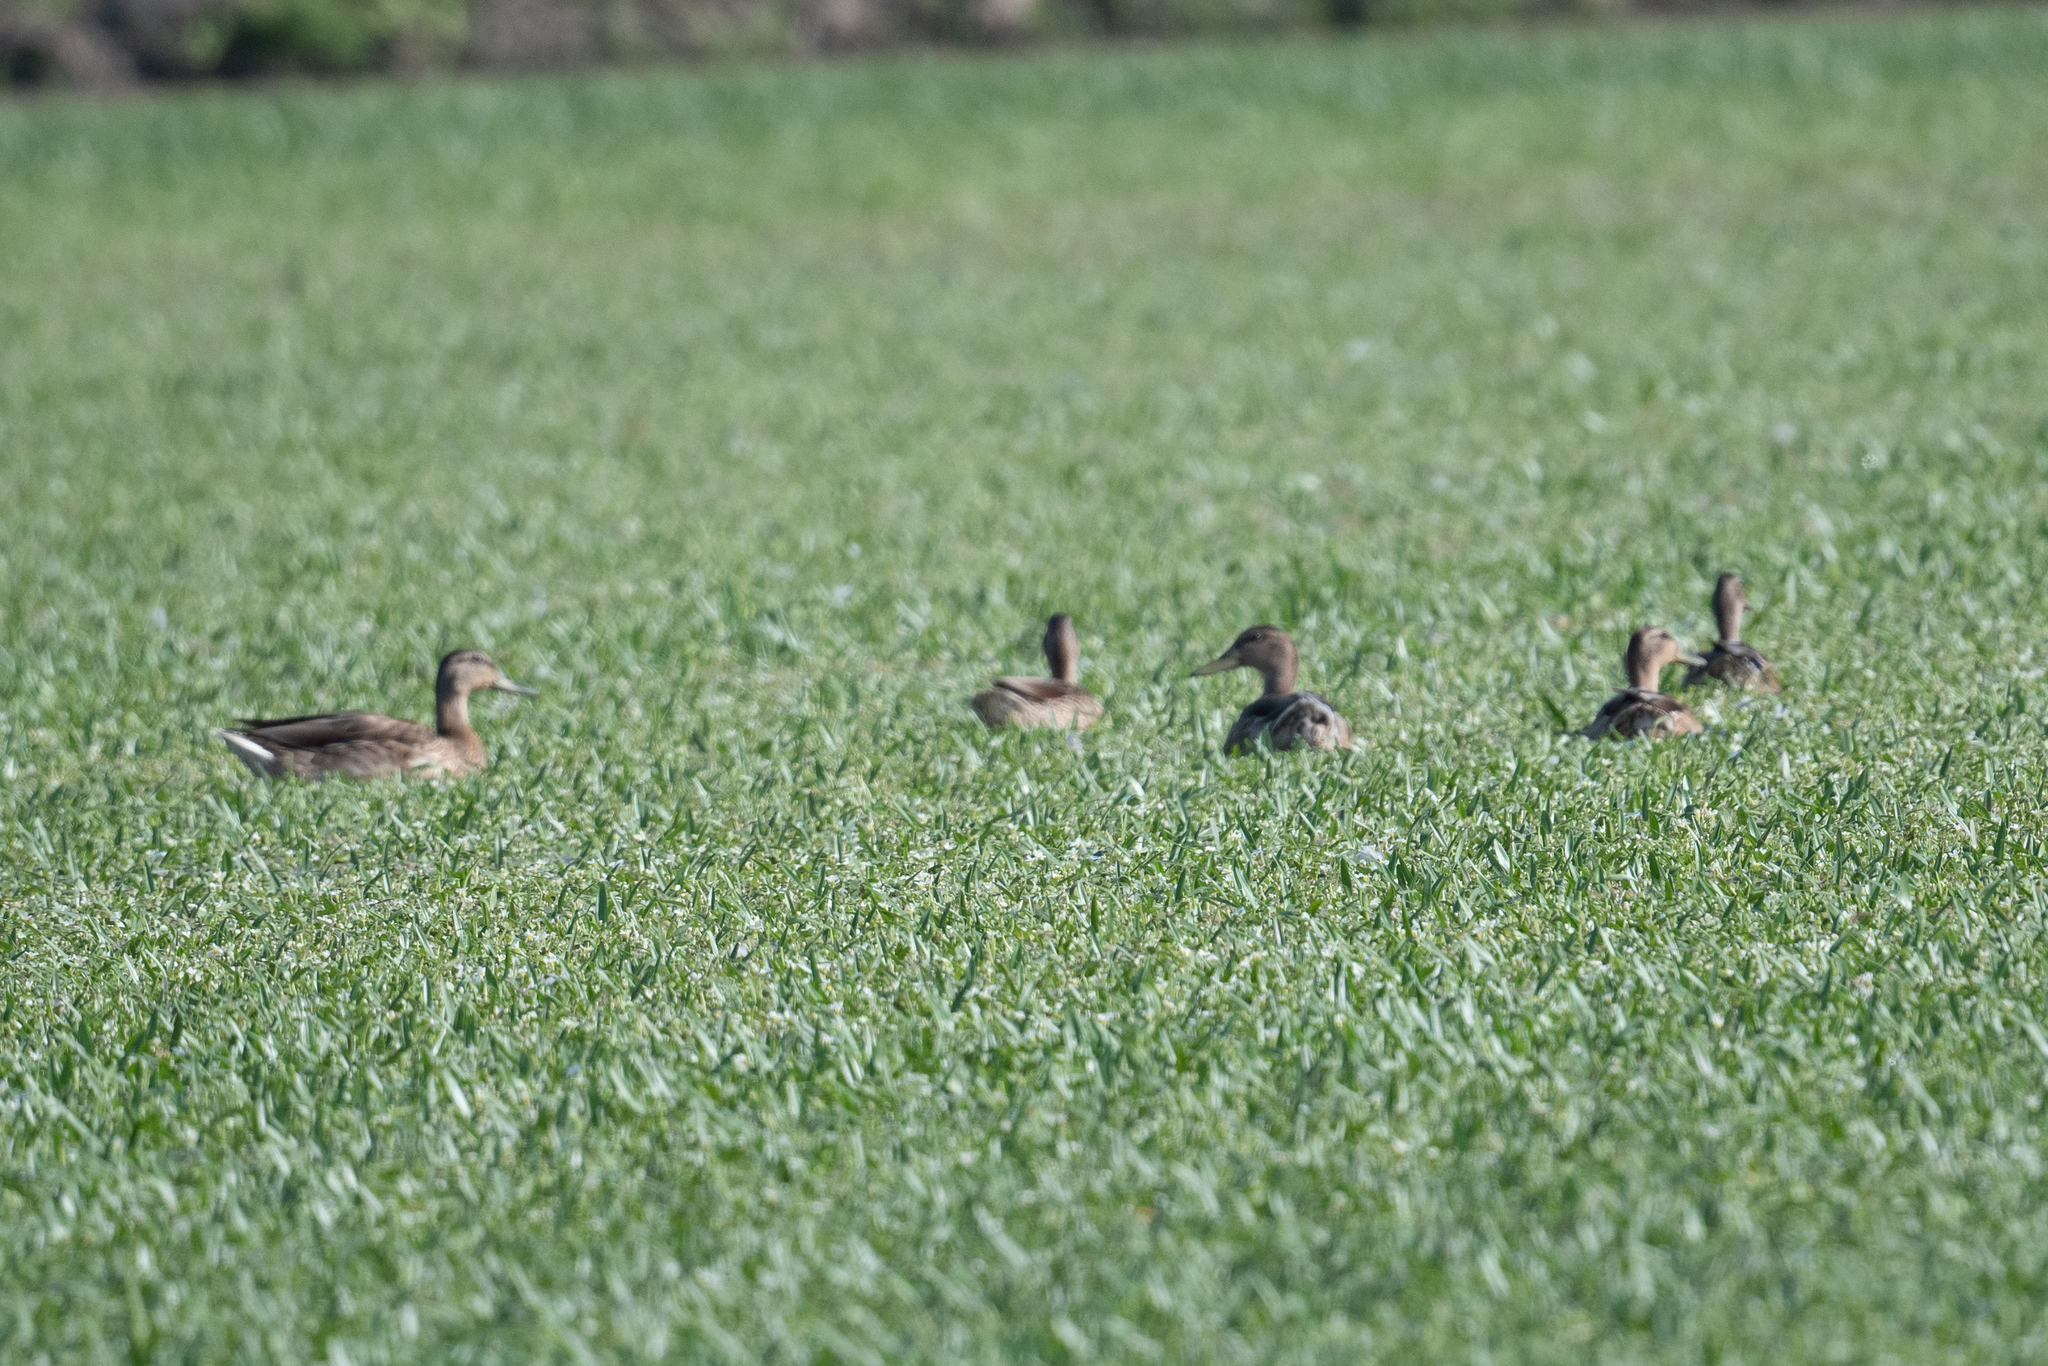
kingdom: Animalia
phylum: Chordata
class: Aves
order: Anseriformes
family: Anatidae
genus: Anas
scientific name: Anas platyrhynchos
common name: Mallard
